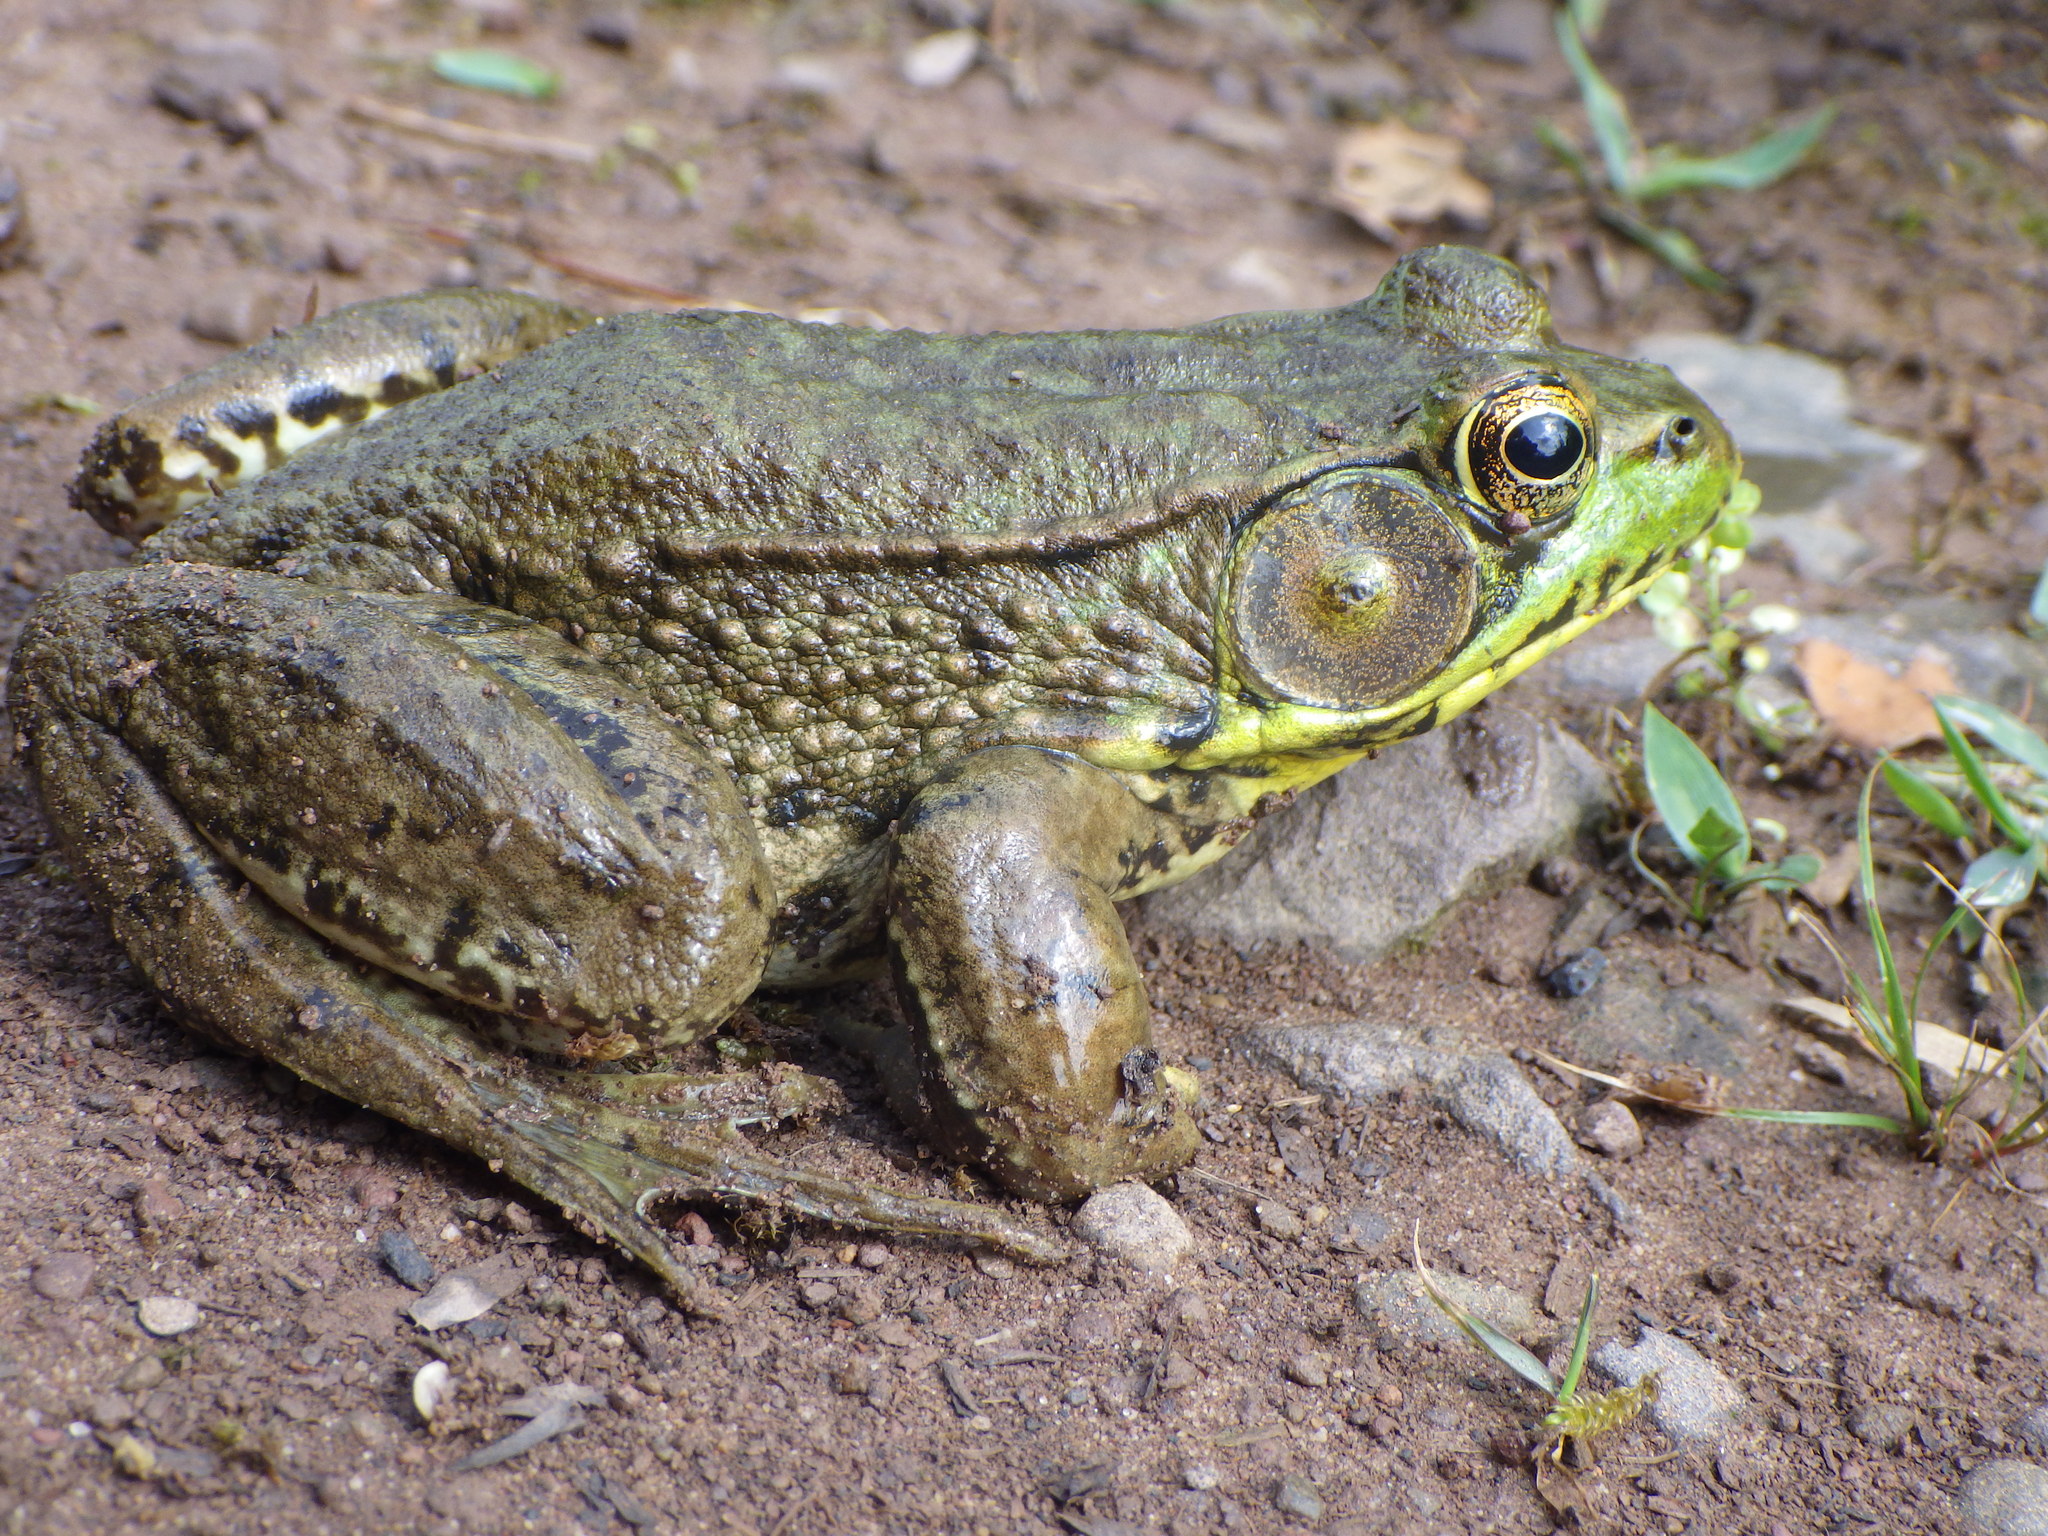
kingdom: Animalia
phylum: Chordata
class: Amphibia
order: Anura
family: Ranidae
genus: Lithobates
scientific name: Lithobates clamitans
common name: Green frog
